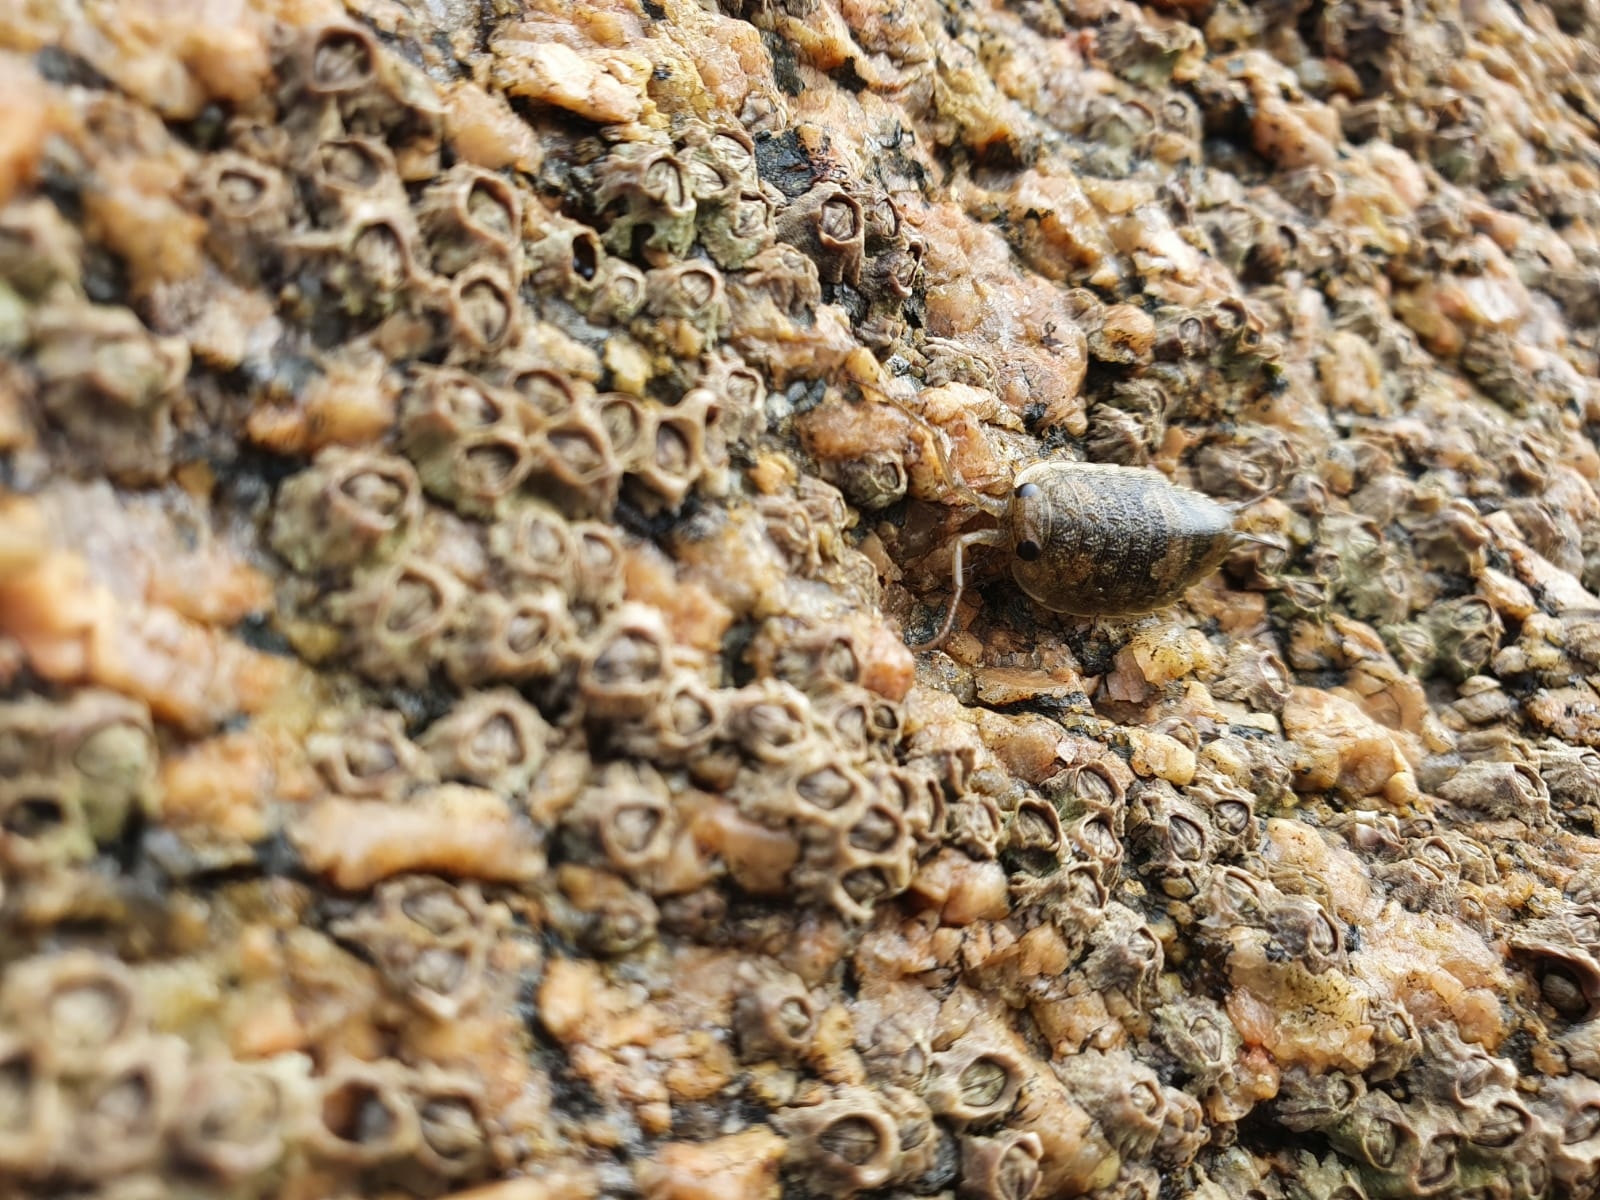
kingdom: Animalia
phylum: Arthropoda
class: Malacostraca
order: Isopoda
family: Ligiidae
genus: Ligia
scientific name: Ligia oceanica
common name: Sea slater
